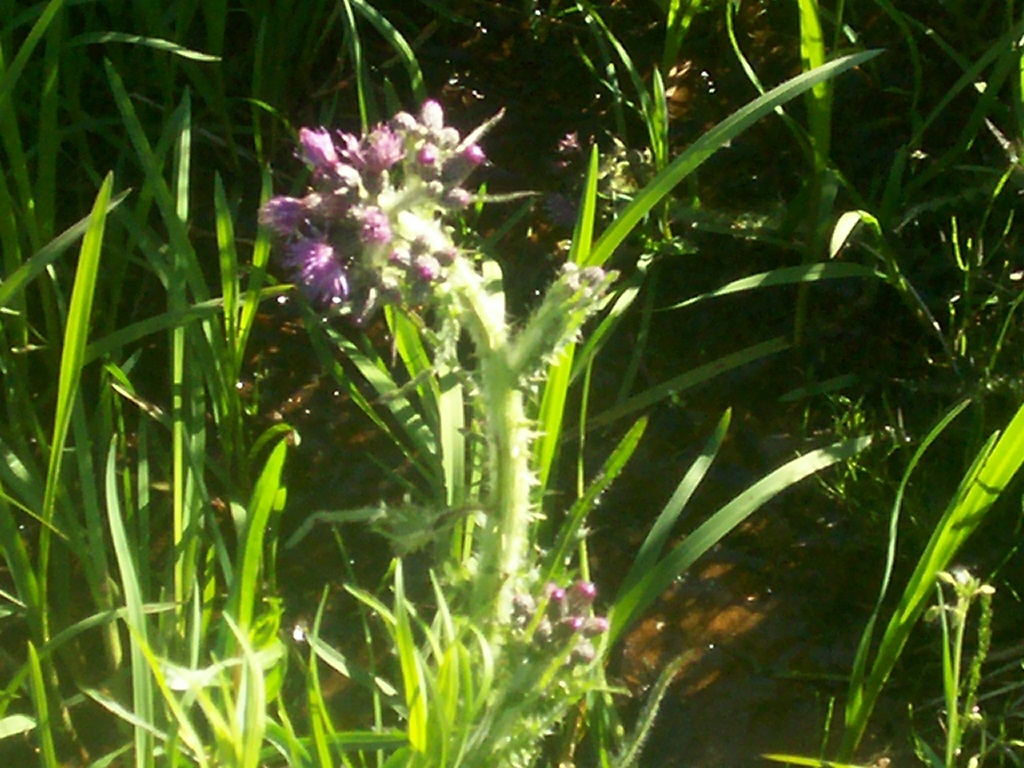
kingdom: Plantae
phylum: Tracheophyta
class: Magnoliopsida
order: Asterales
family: Asteraceae
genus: Cirsium
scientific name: Cirsium palustre
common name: Marsh thistle
